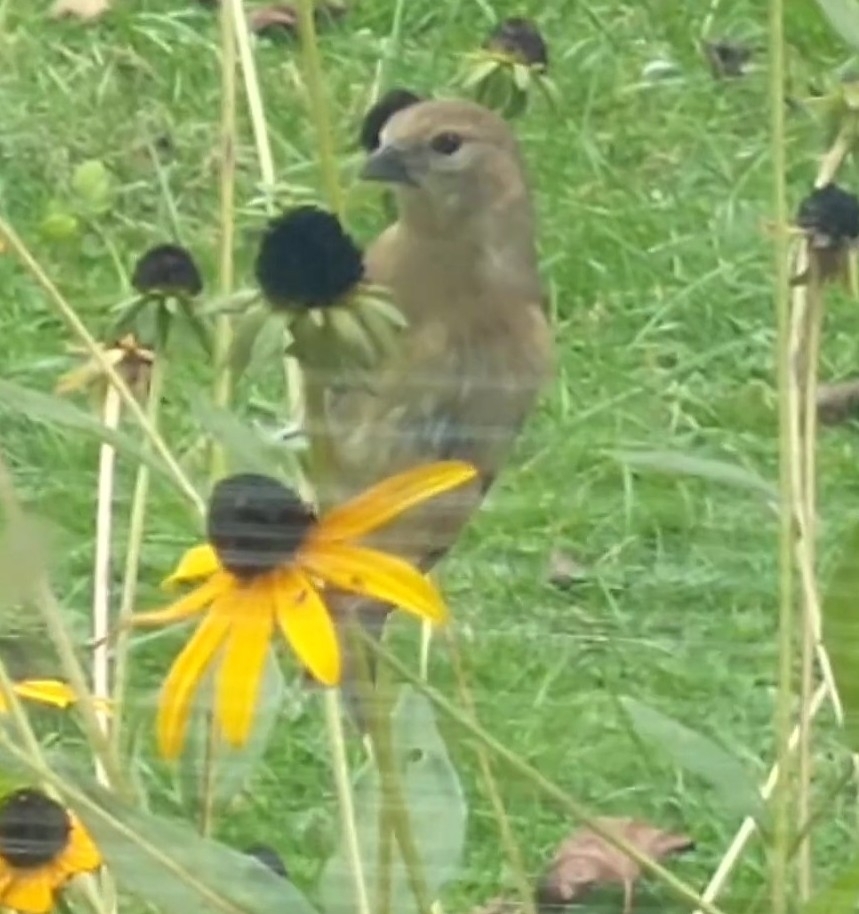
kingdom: Animalia
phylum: Chordata
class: Aves
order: Passeriformes
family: Fringillidae
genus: Spinus
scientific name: Spinus tristis
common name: American goldfinch
